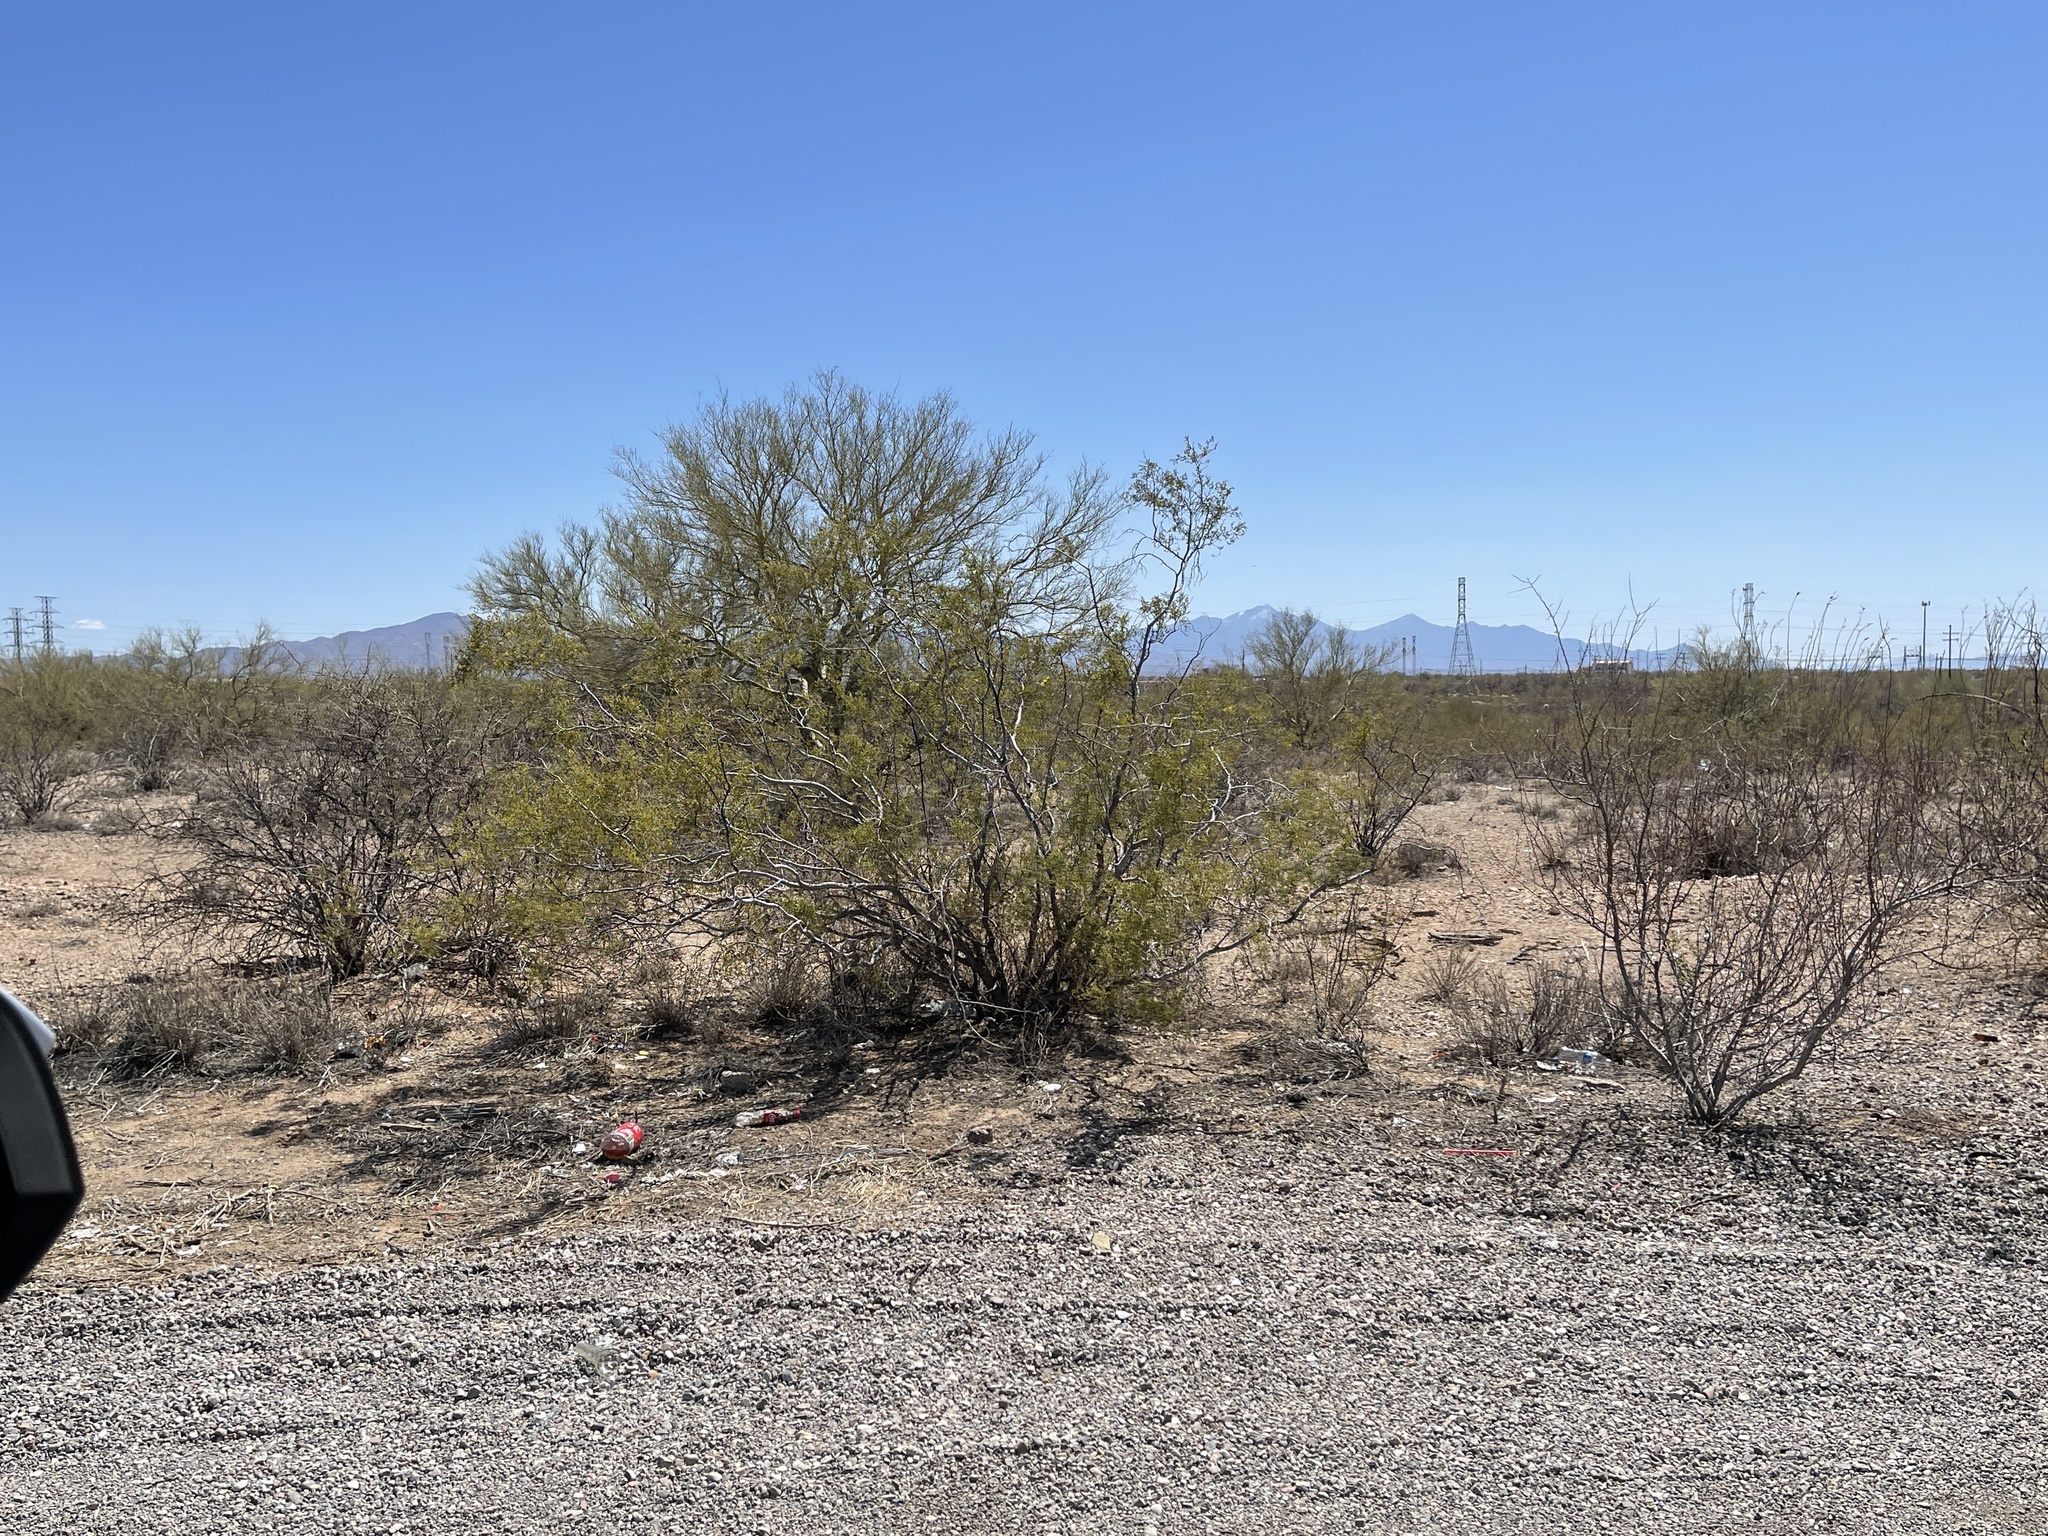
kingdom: Plantae
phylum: Tracheophyta
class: Magnoliopsida
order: Zygophyllales
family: Zygophyllaceae
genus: Larrea
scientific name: Larrea tridentata
